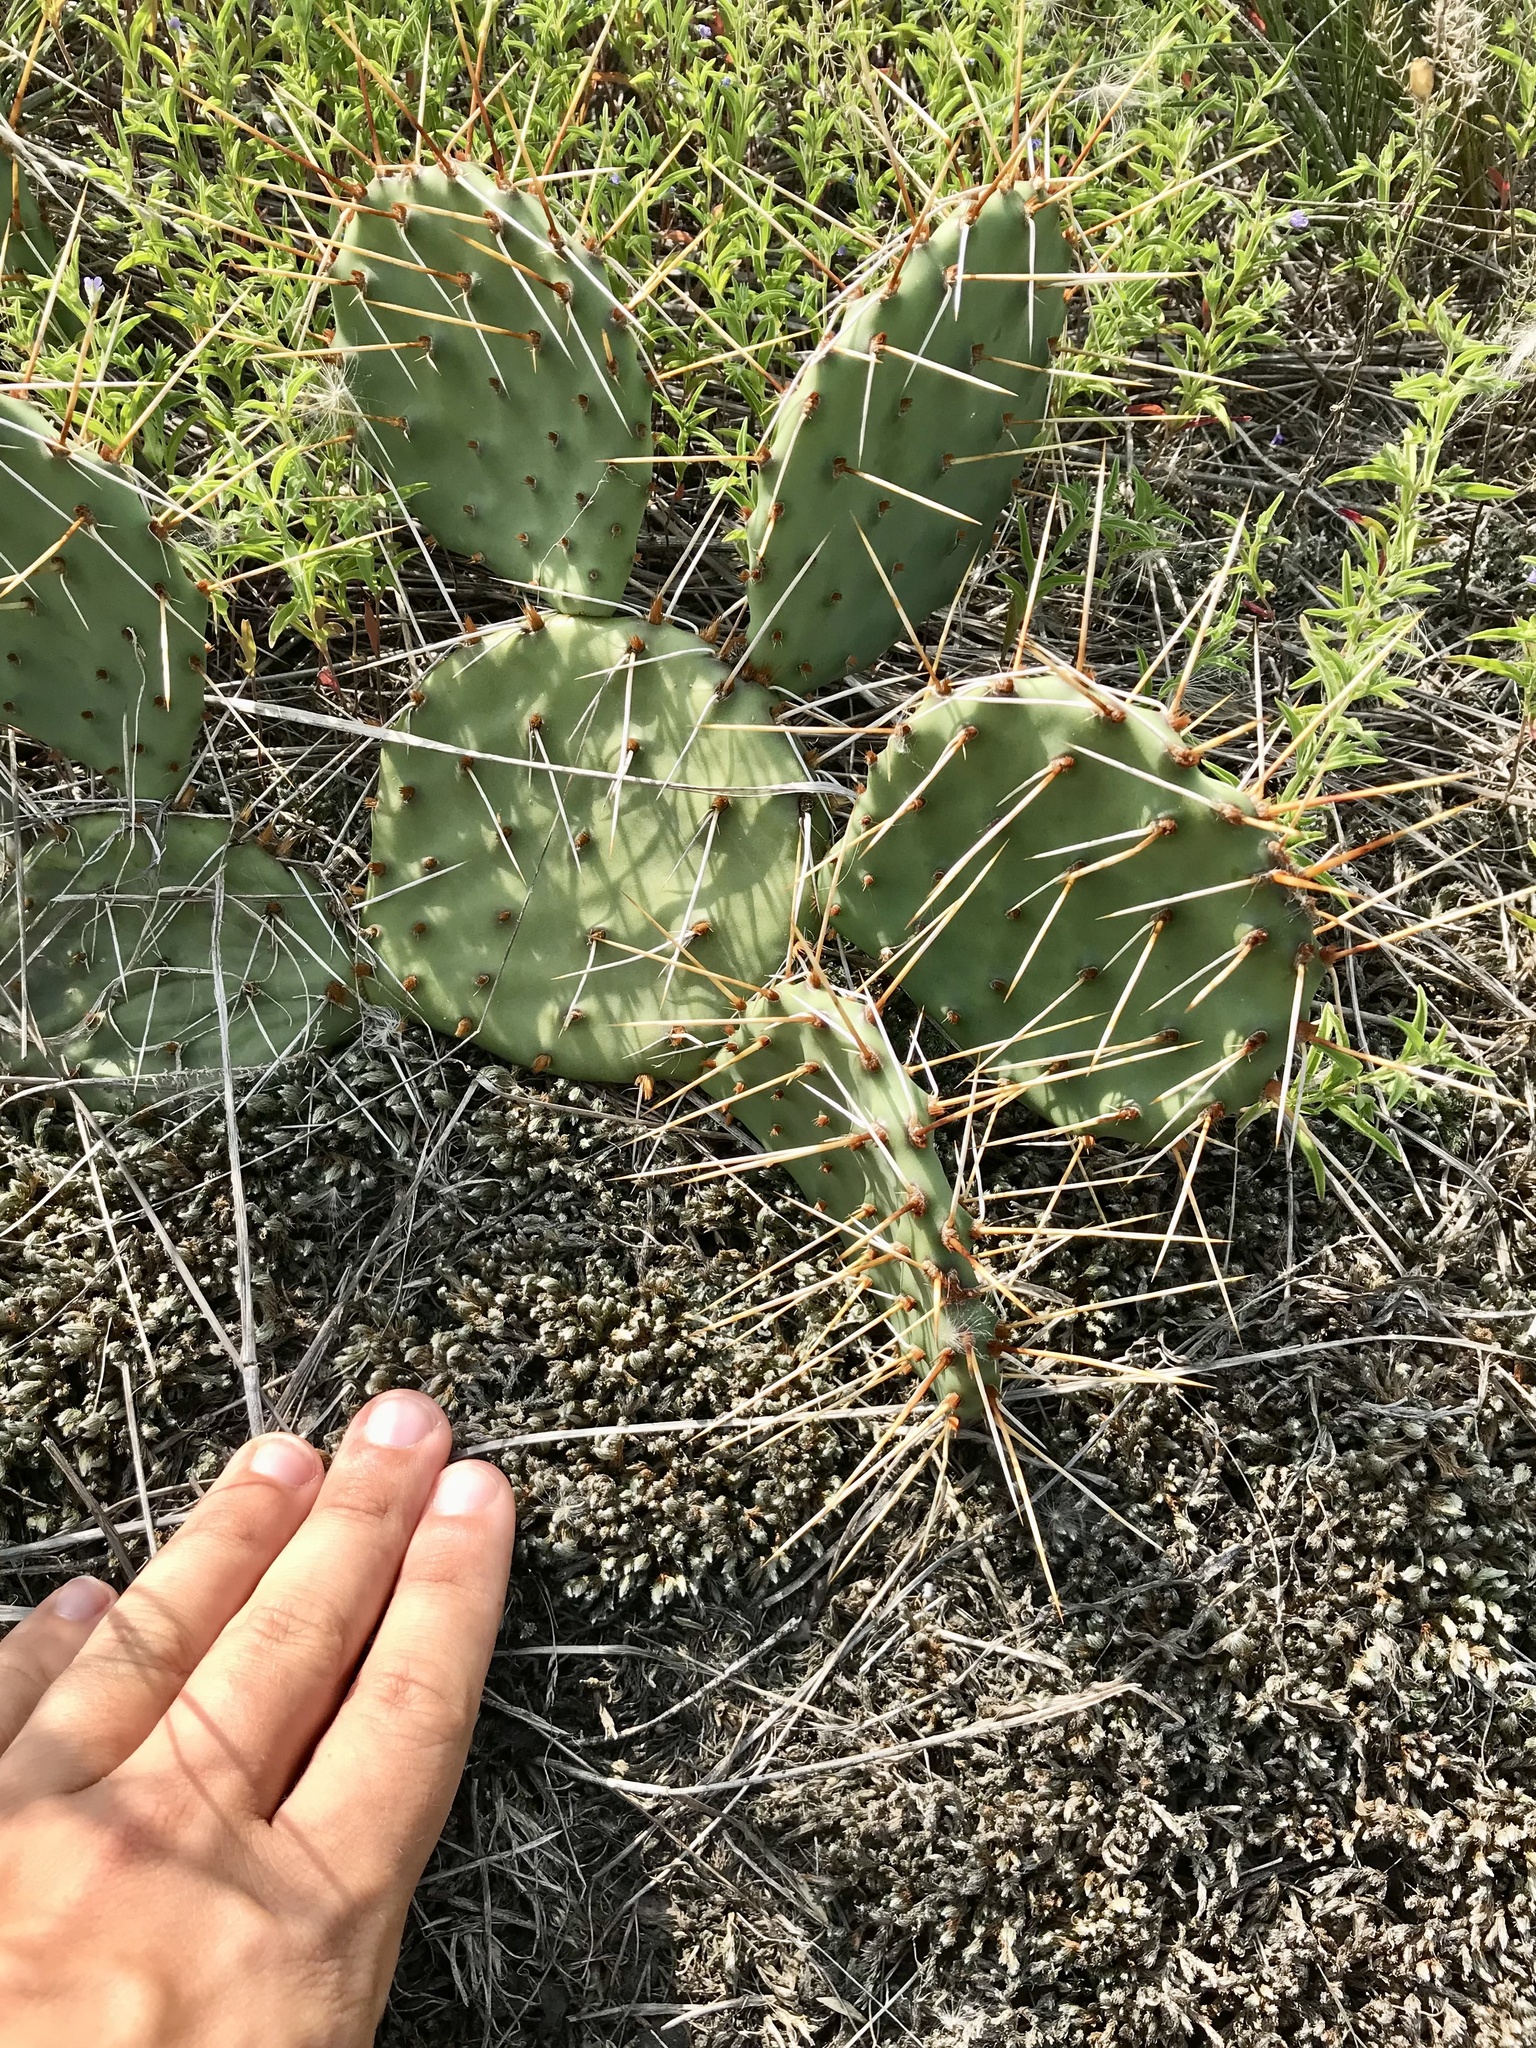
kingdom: Plantae
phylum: Tracheophyta
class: Magnoliopsida
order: Caryophyllales
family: Cactaceae
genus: Opuntia
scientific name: Opuntia macrorhiza
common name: Grassland pricklypear
